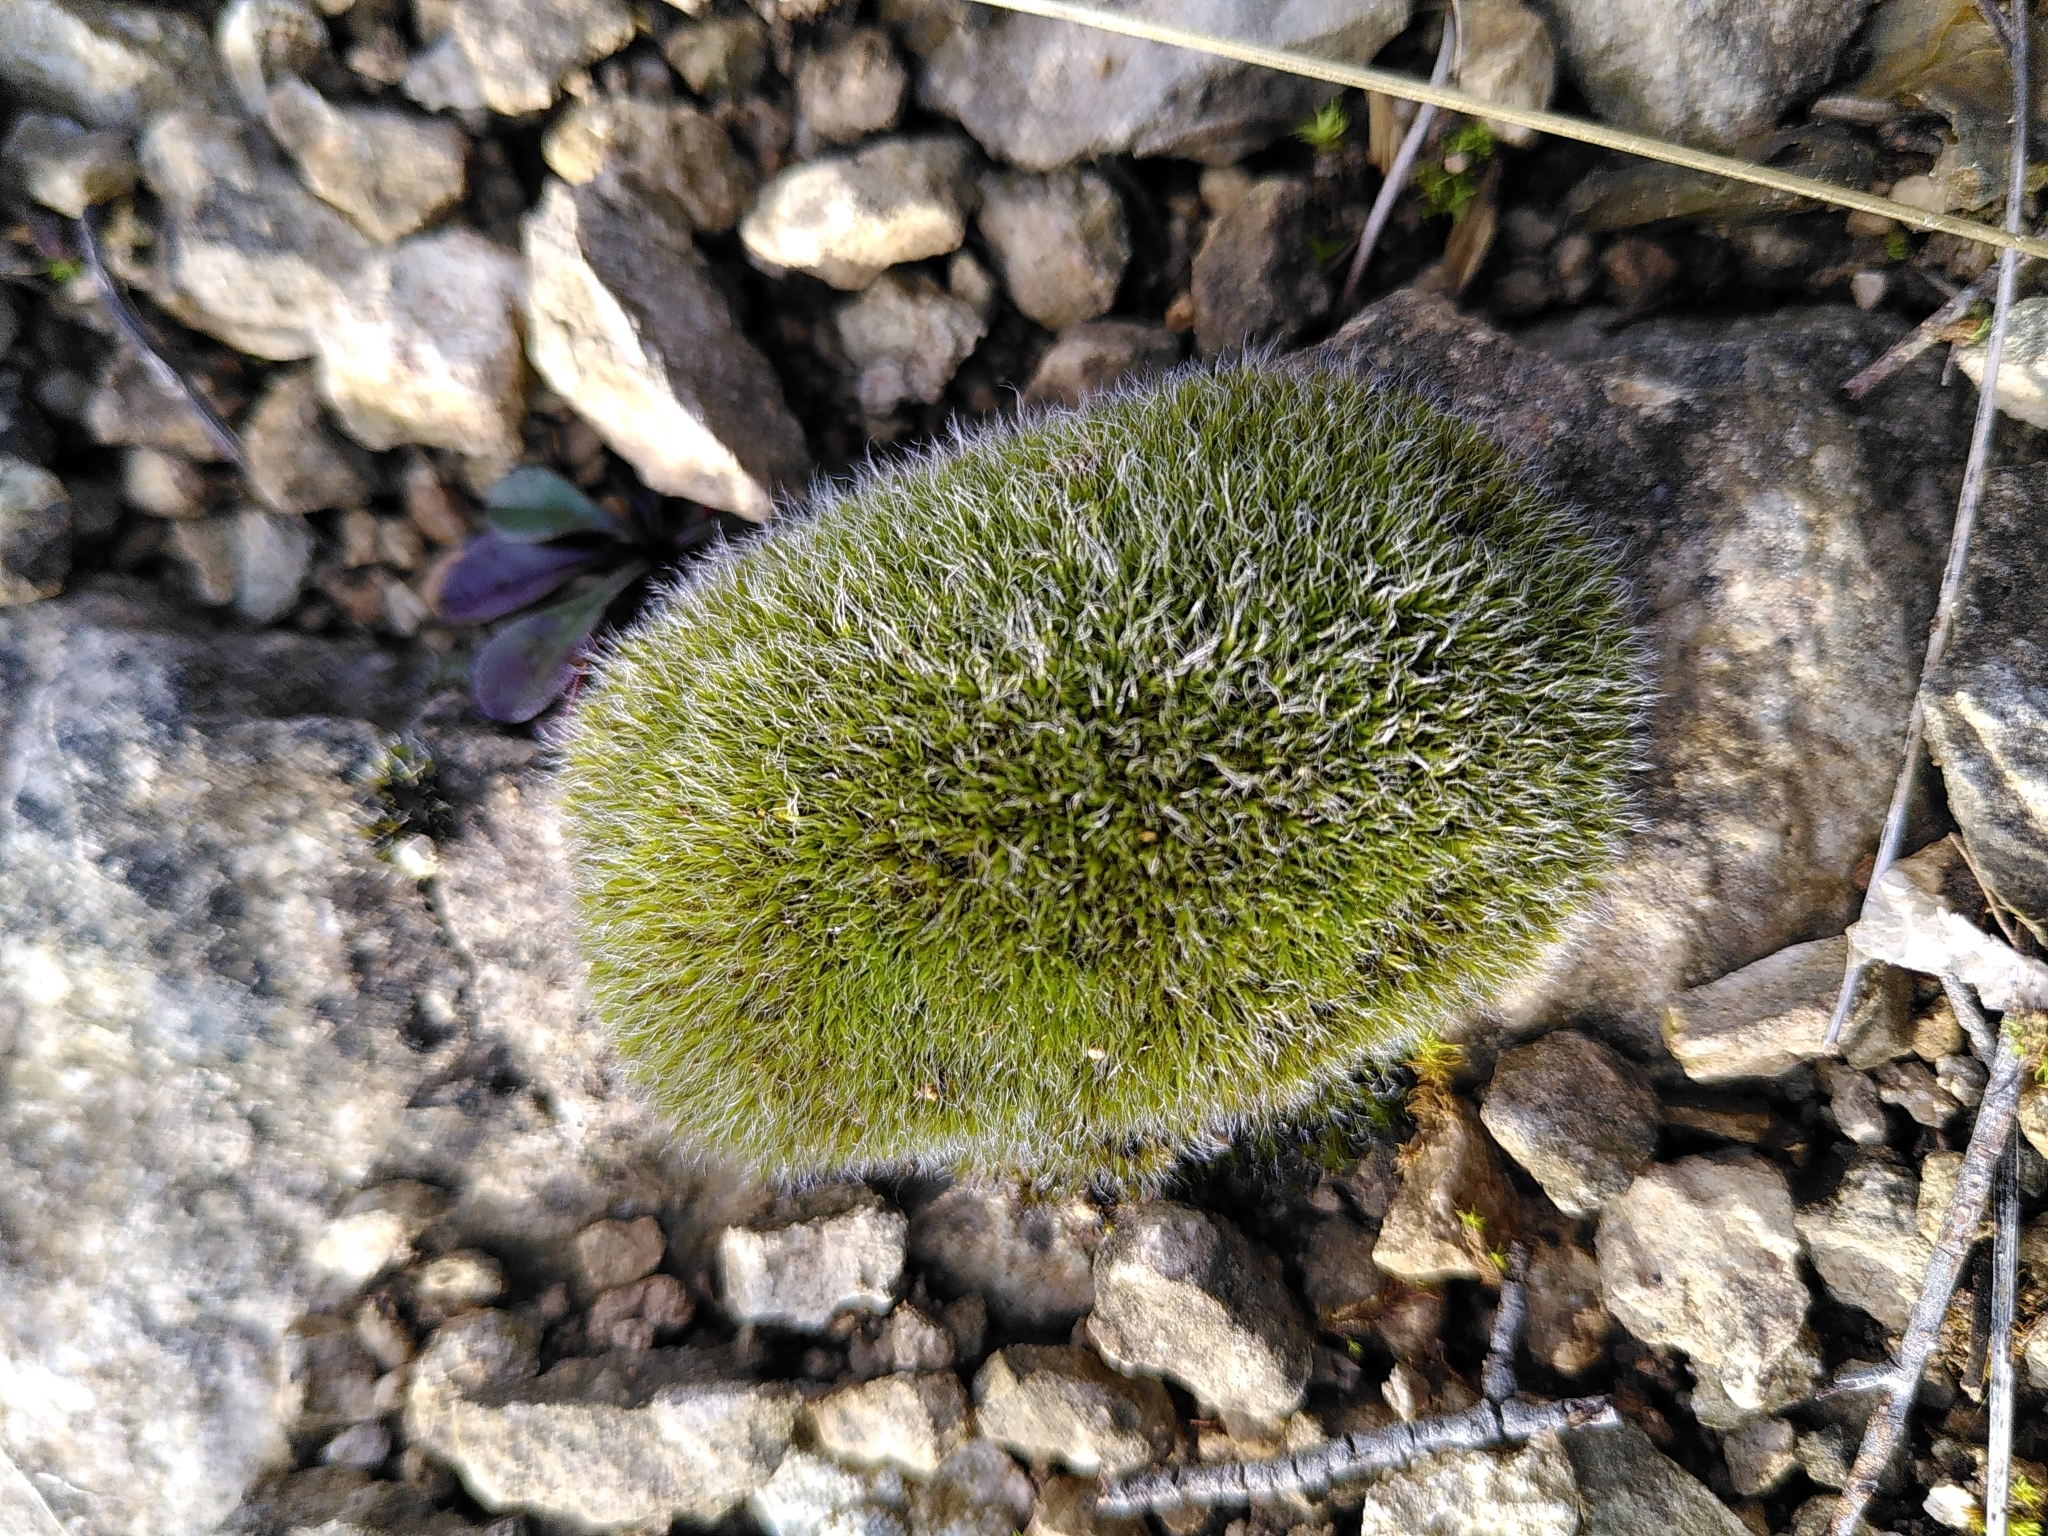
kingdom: Plantae
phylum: Bryophyta
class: Bryopsida
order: Grimmiales
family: Grimmiaceae
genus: Grimmia
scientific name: Grimmia pulvinata
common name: Grey-cushioned grimmia
